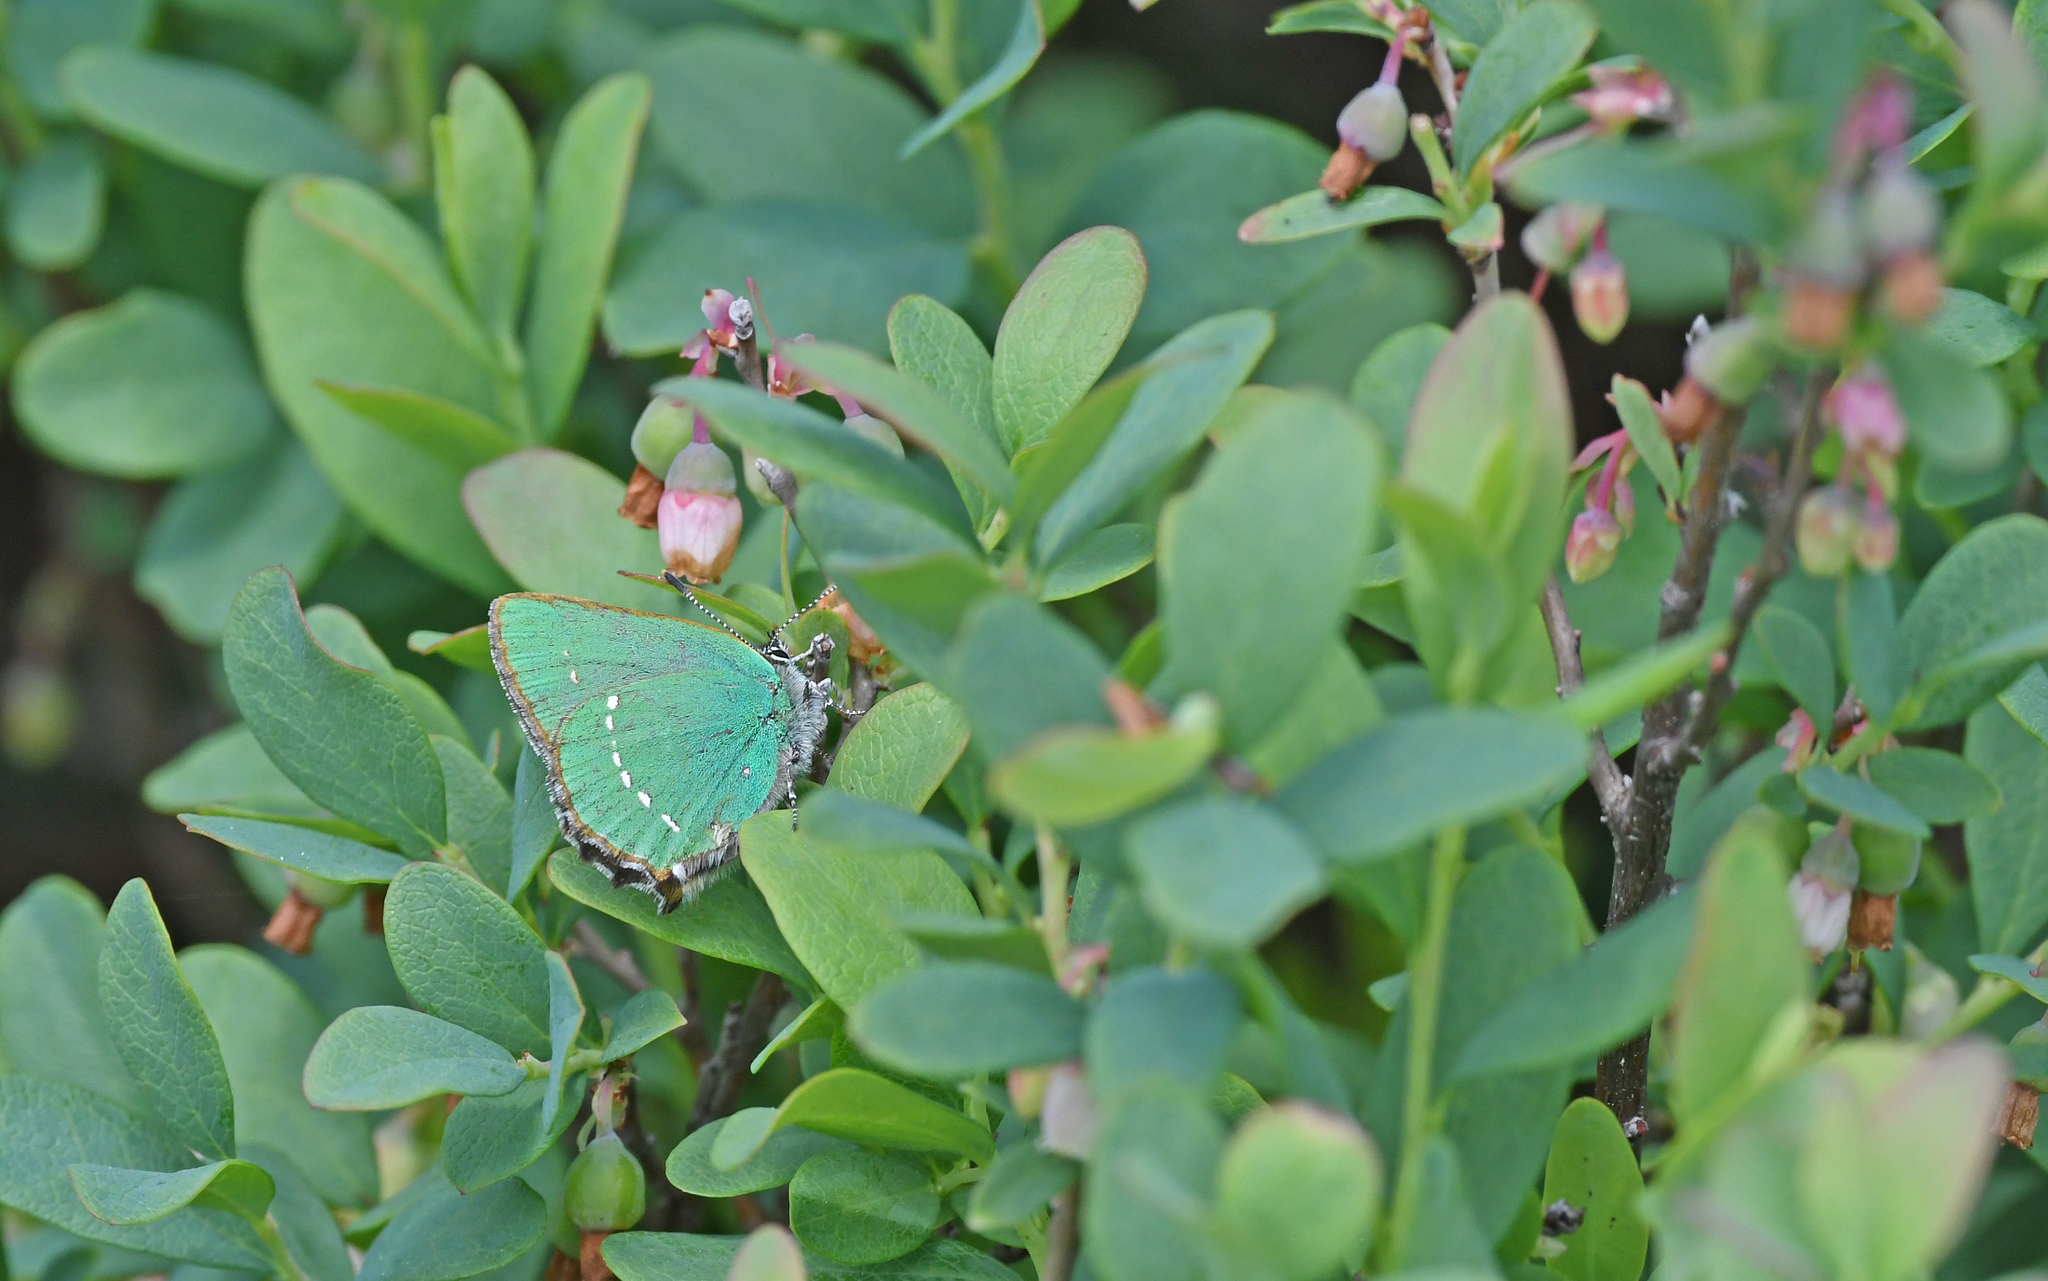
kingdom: Animalia
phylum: Arthropoda
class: Insecta
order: Lepidoptera
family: Lycaenidae
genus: Callophrys
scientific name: Callophrys rubi
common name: Green hairstreak
